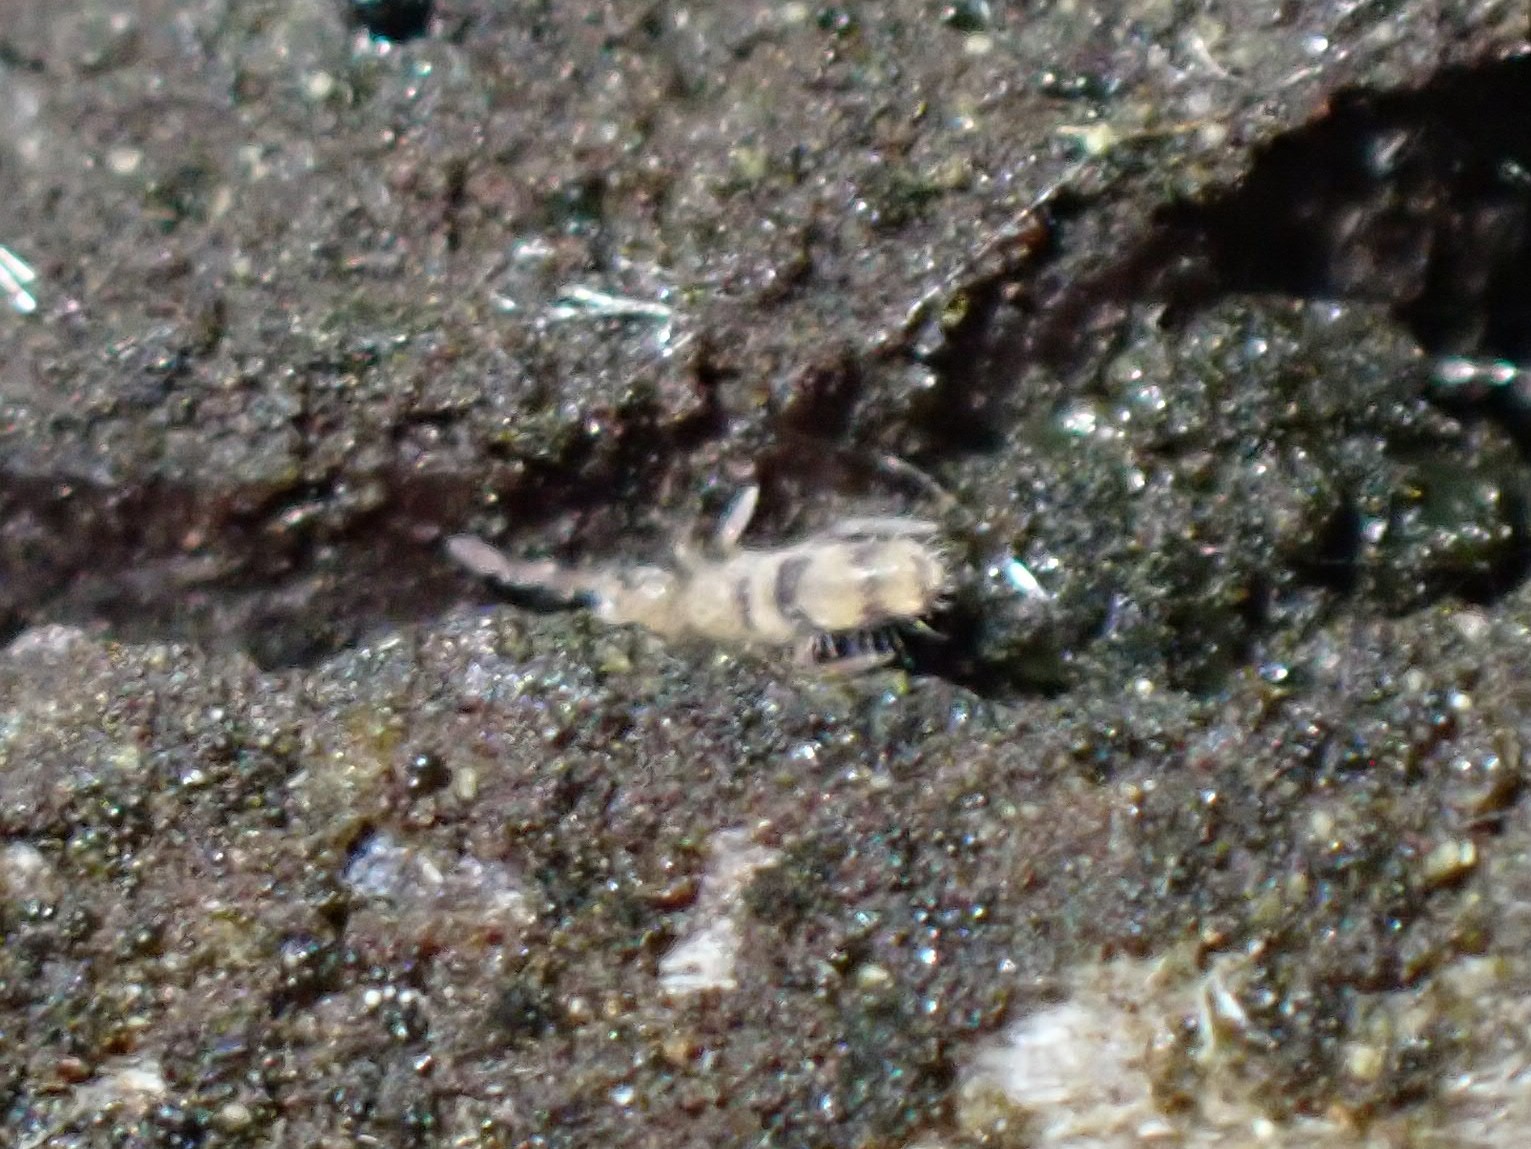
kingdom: Animalia
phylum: Arthropoda
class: Collembola
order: Entomobryomorpha
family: Entomobryidae
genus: Entomobrya
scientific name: Entomobrya triangularis
